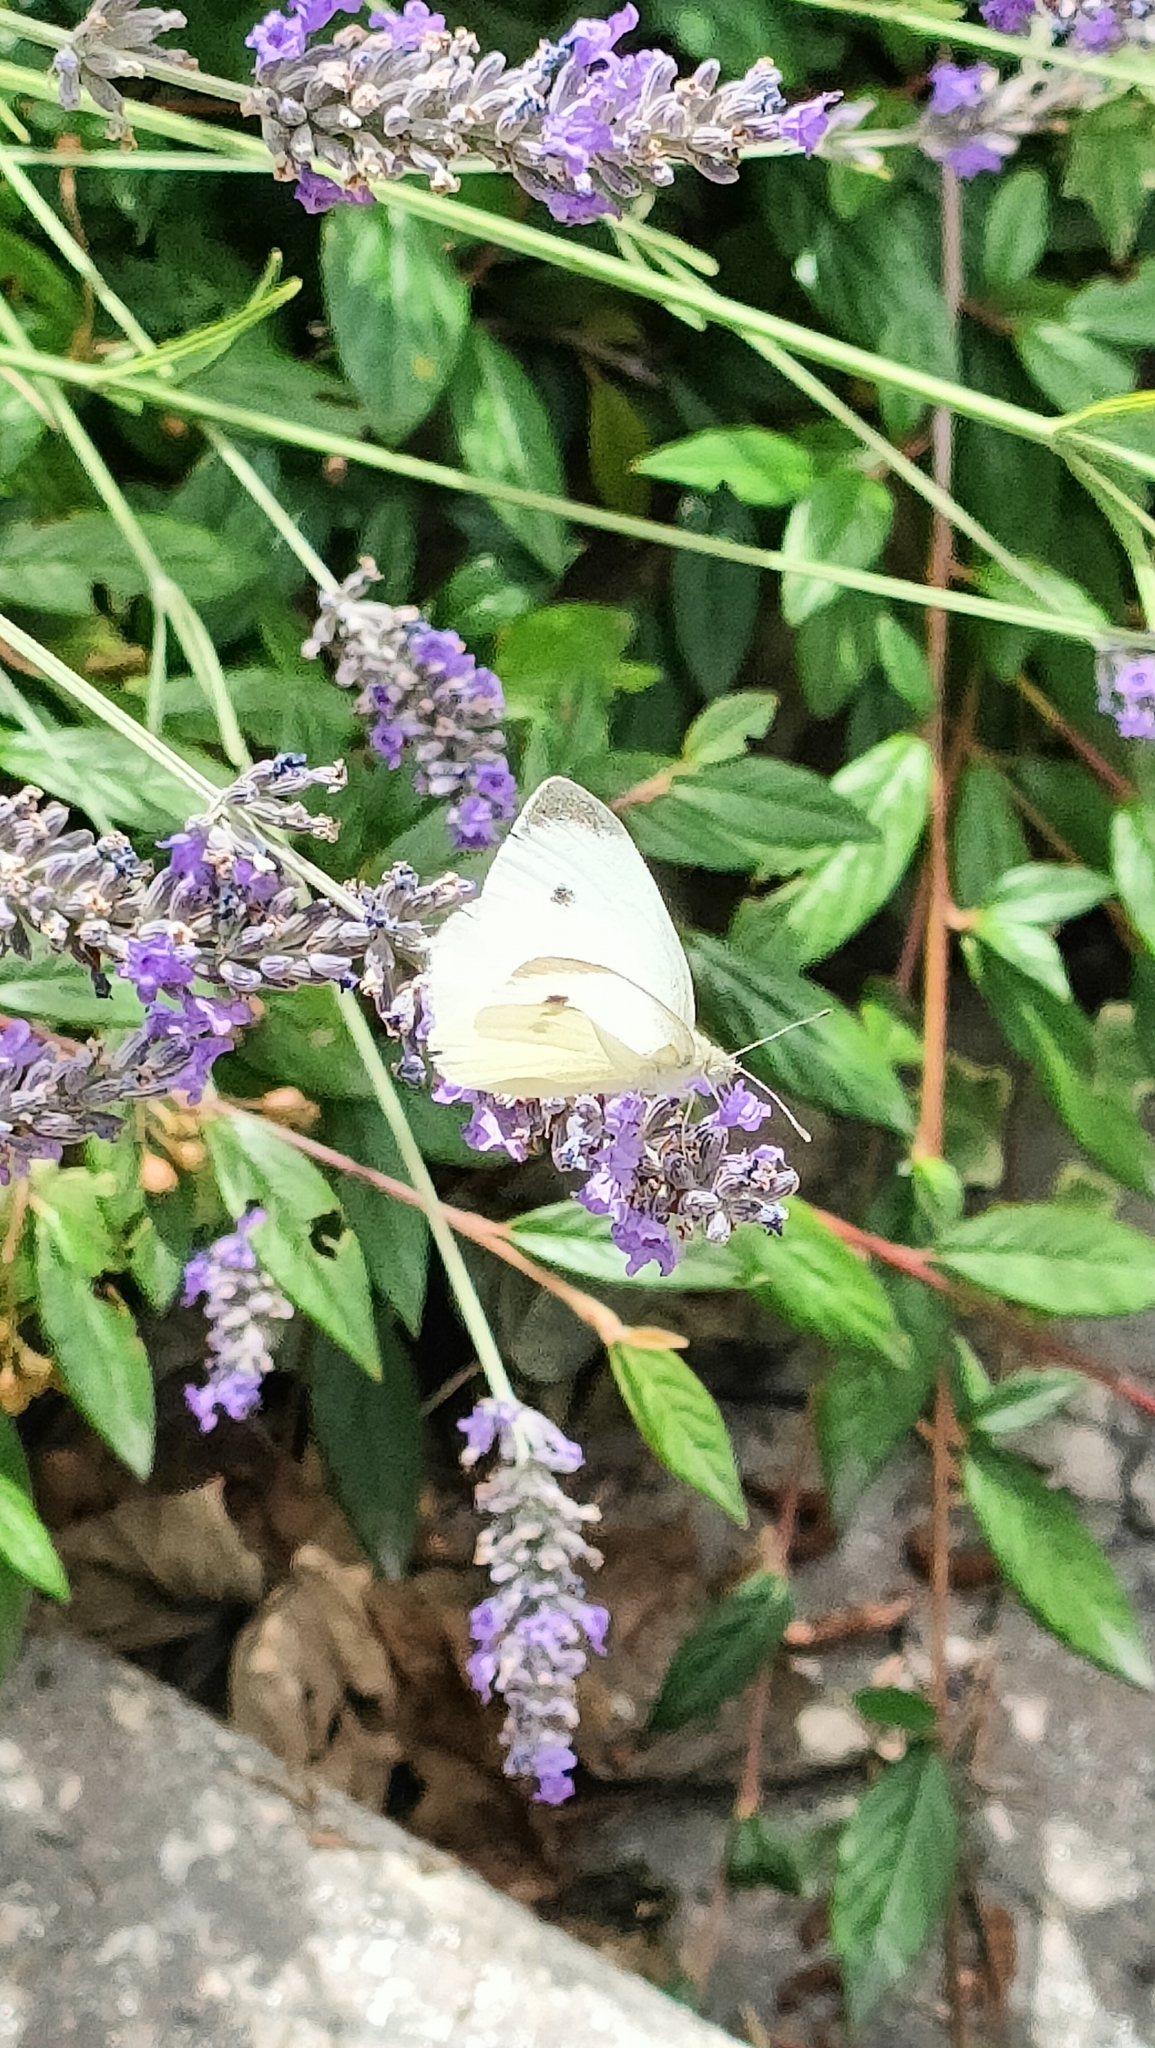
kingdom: Animalia
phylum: Arthropoda
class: Insecta
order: Lepidoptera
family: Pieridae
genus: Pieris
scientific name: Pieris rapae
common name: Small white
